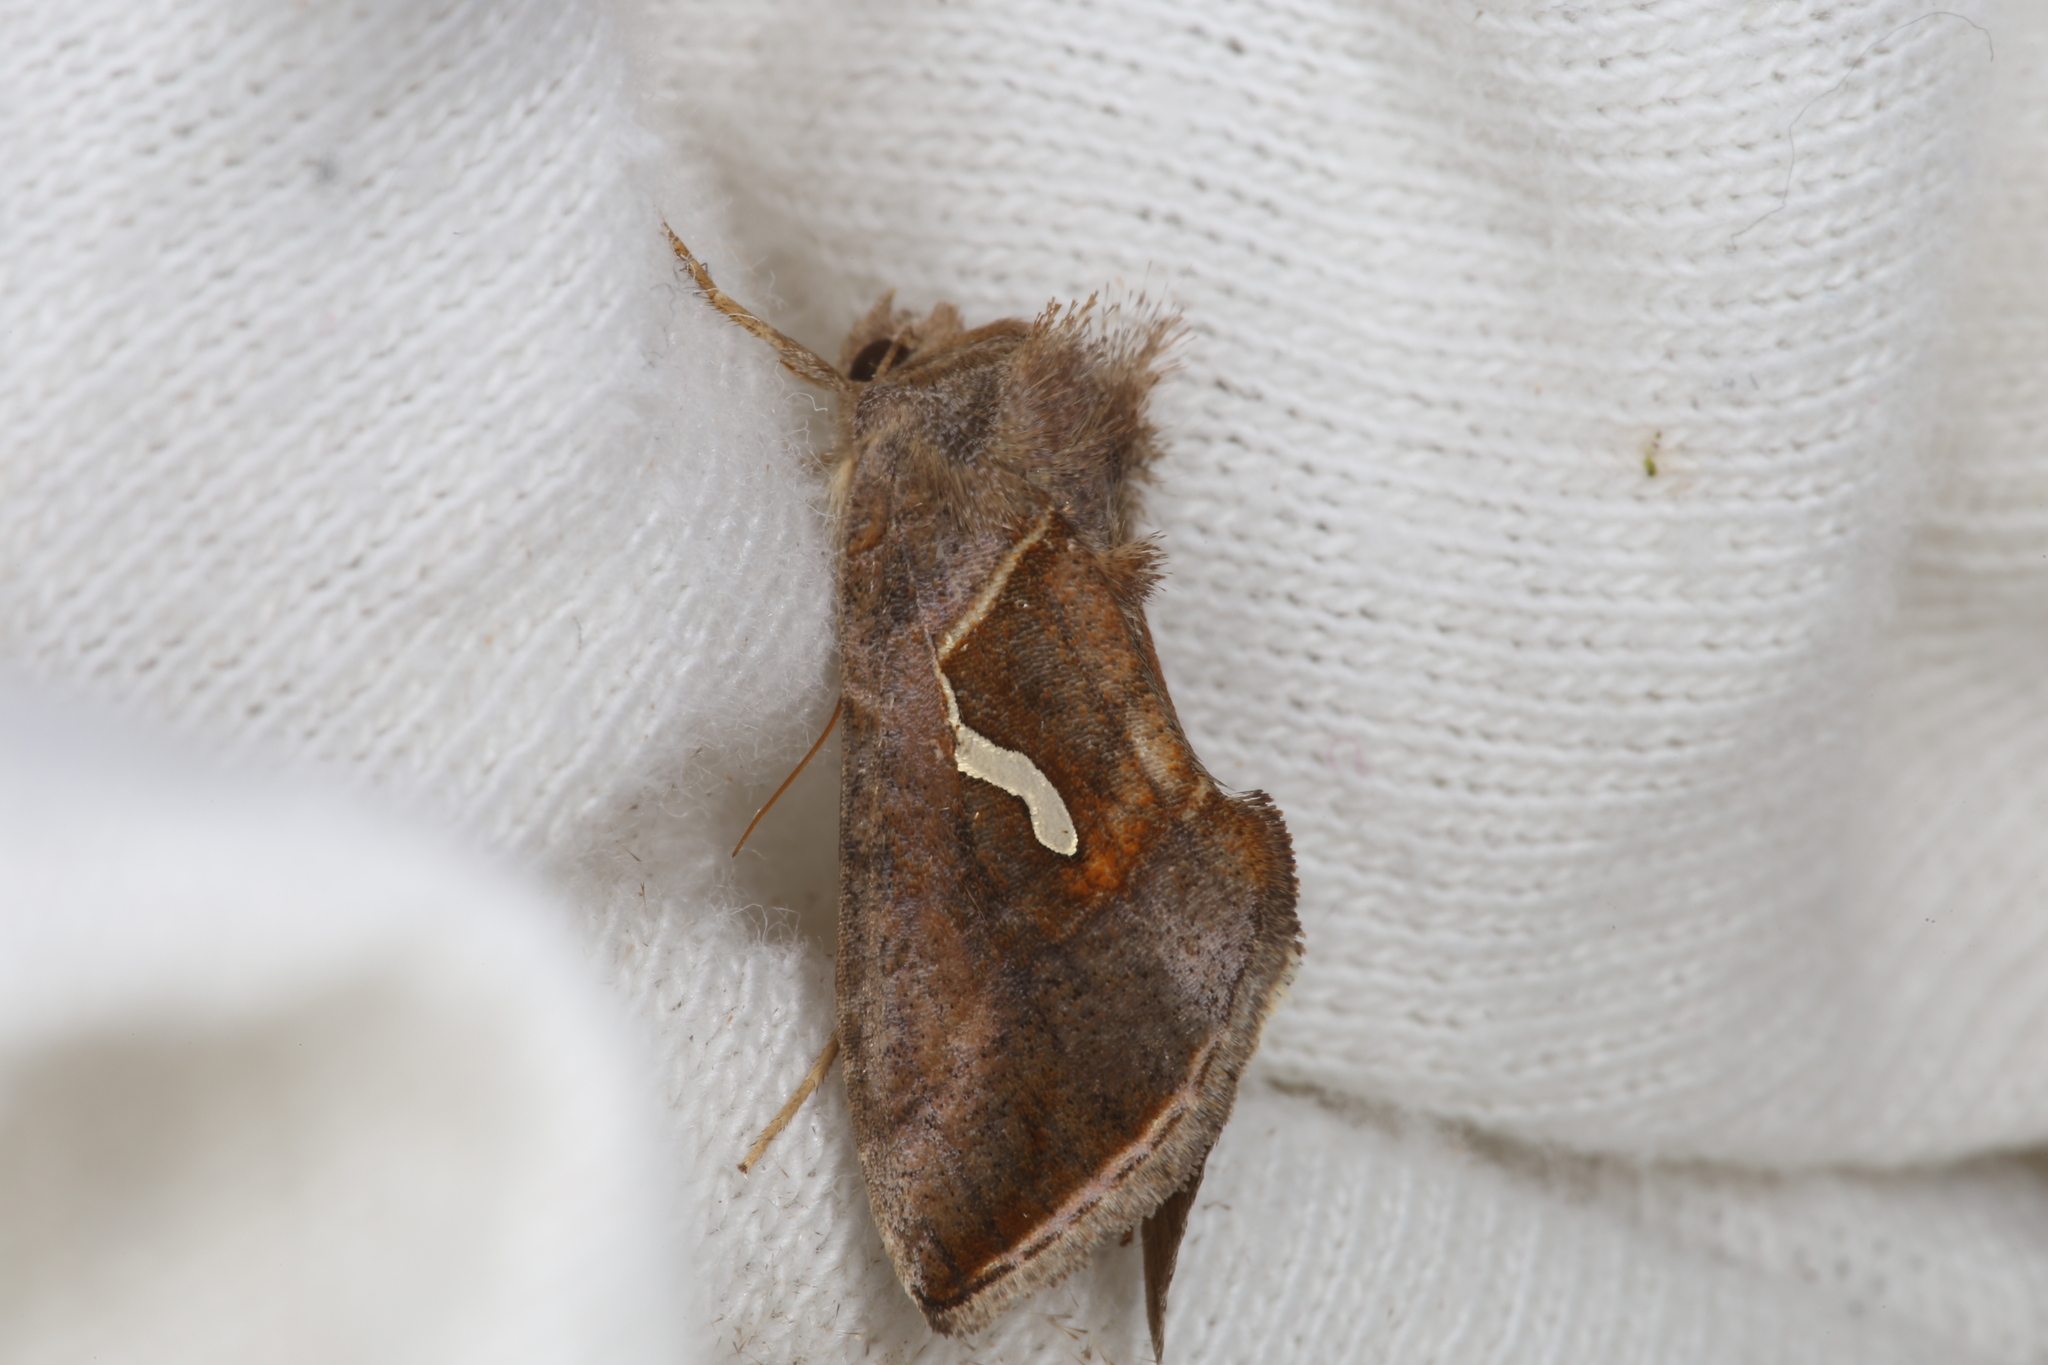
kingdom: Animalia
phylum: Arthropoda
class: Insecta
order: Lepidoptera
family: Noctuidae
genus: Macdunnoughia
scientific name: Macdunnoughia confusa
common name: Dewick's plusia
